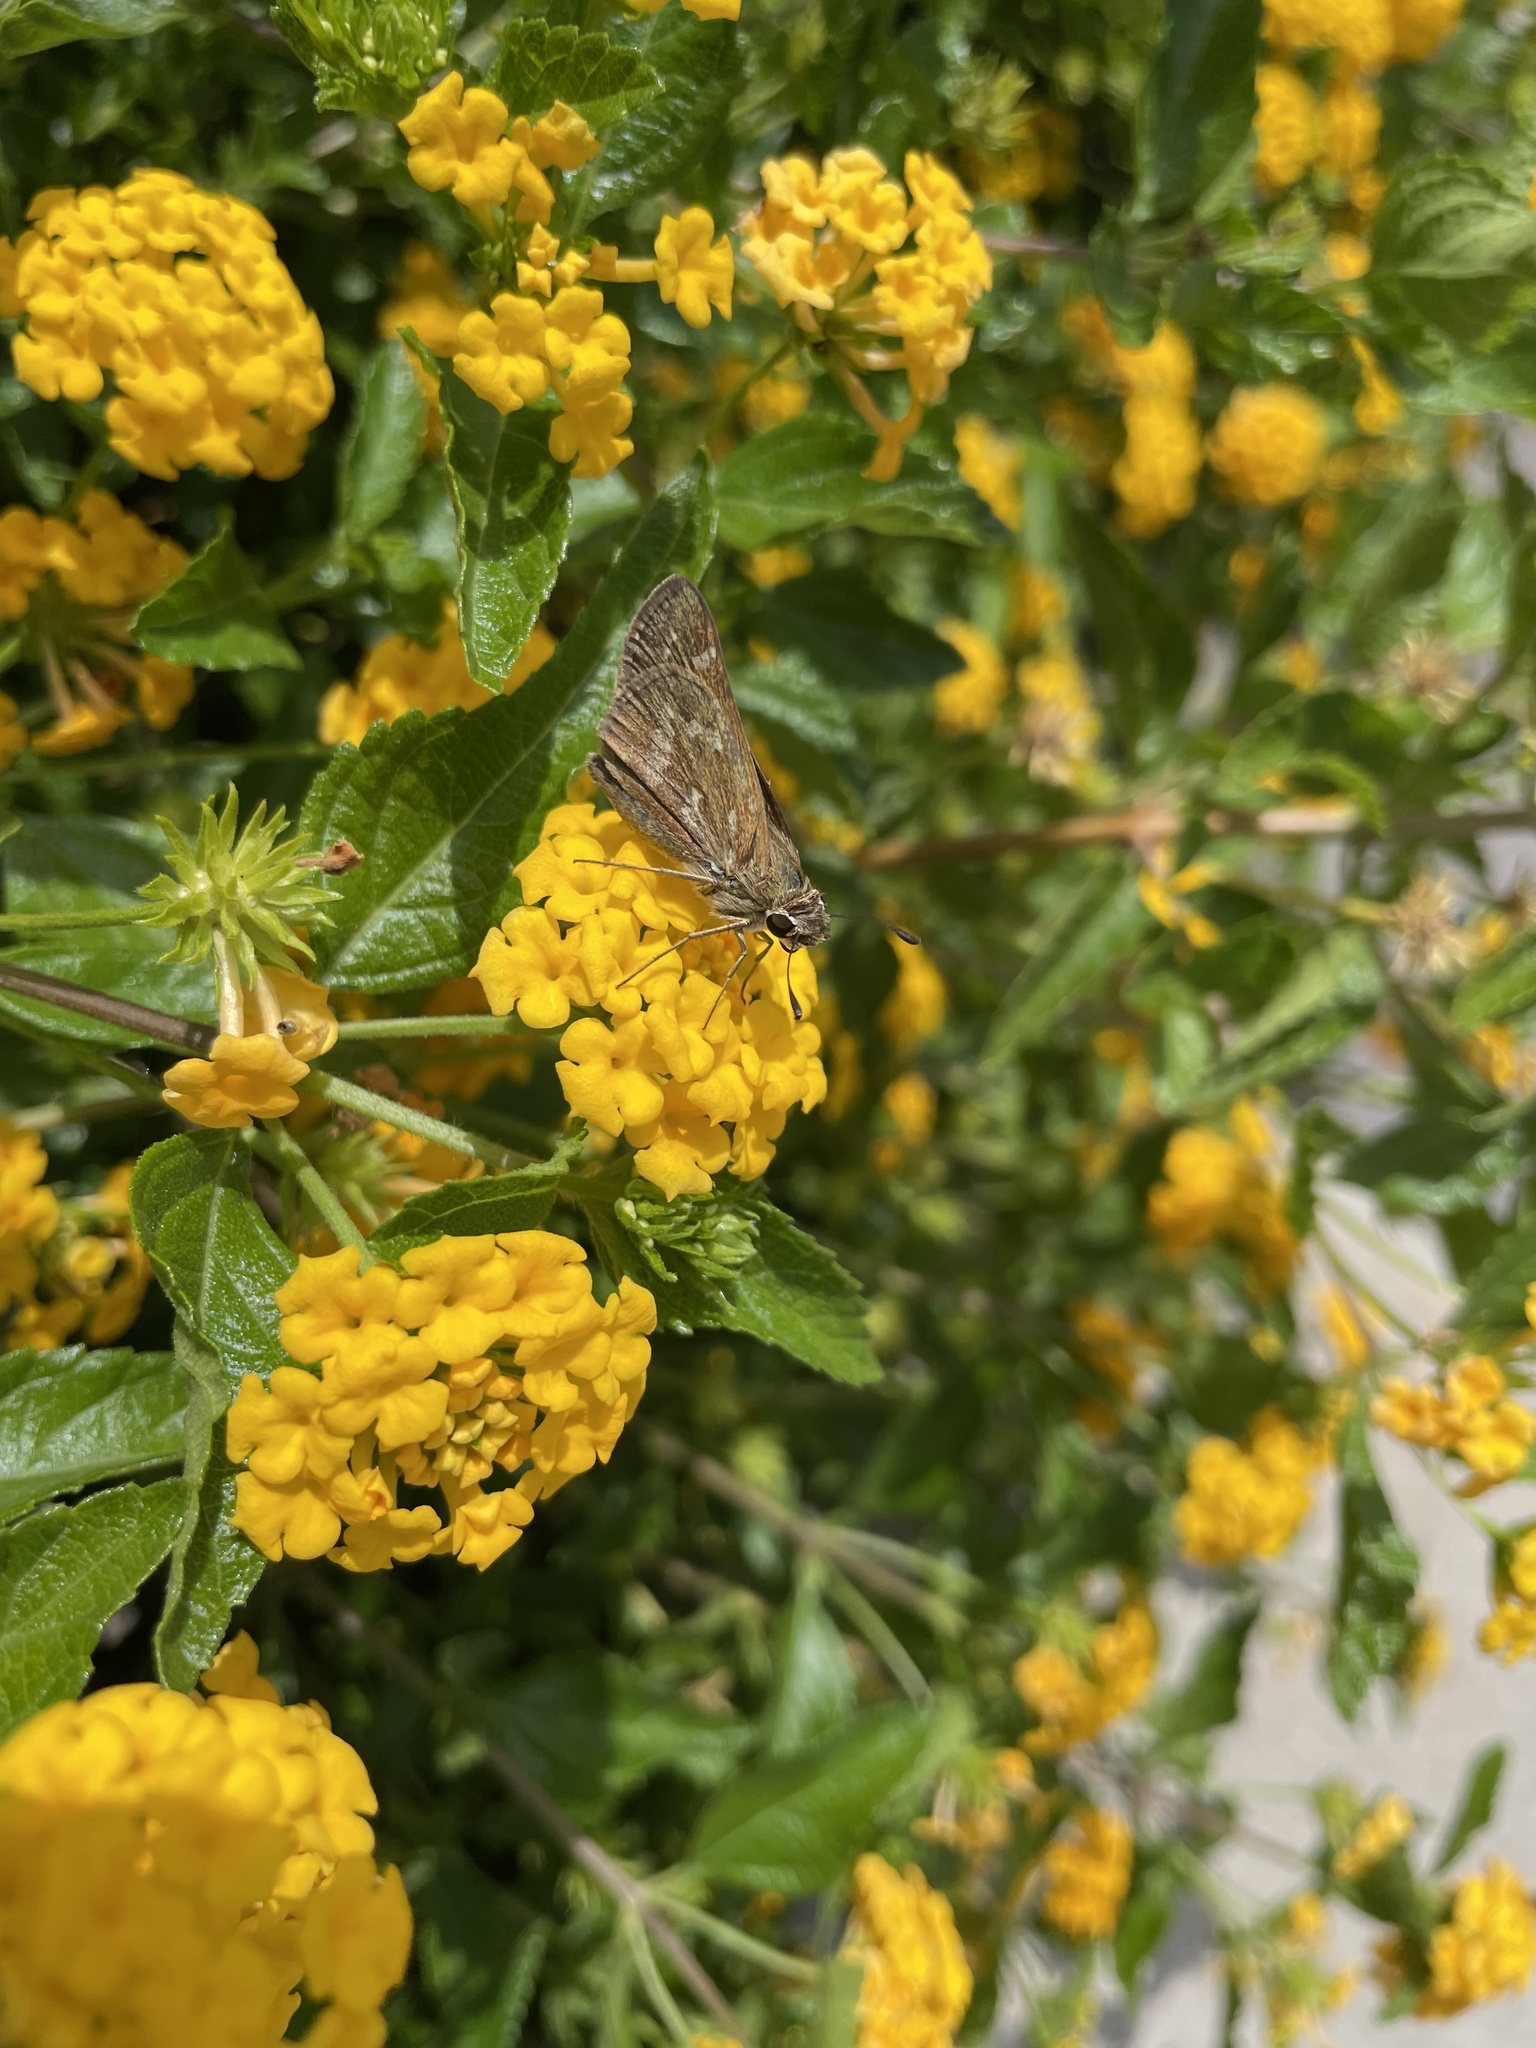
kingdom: Animalia
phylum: Arthropoda
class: Insecta
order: Lepidoptera
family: Hesperiidae
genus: Atalopedes
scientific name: Atalopedes
